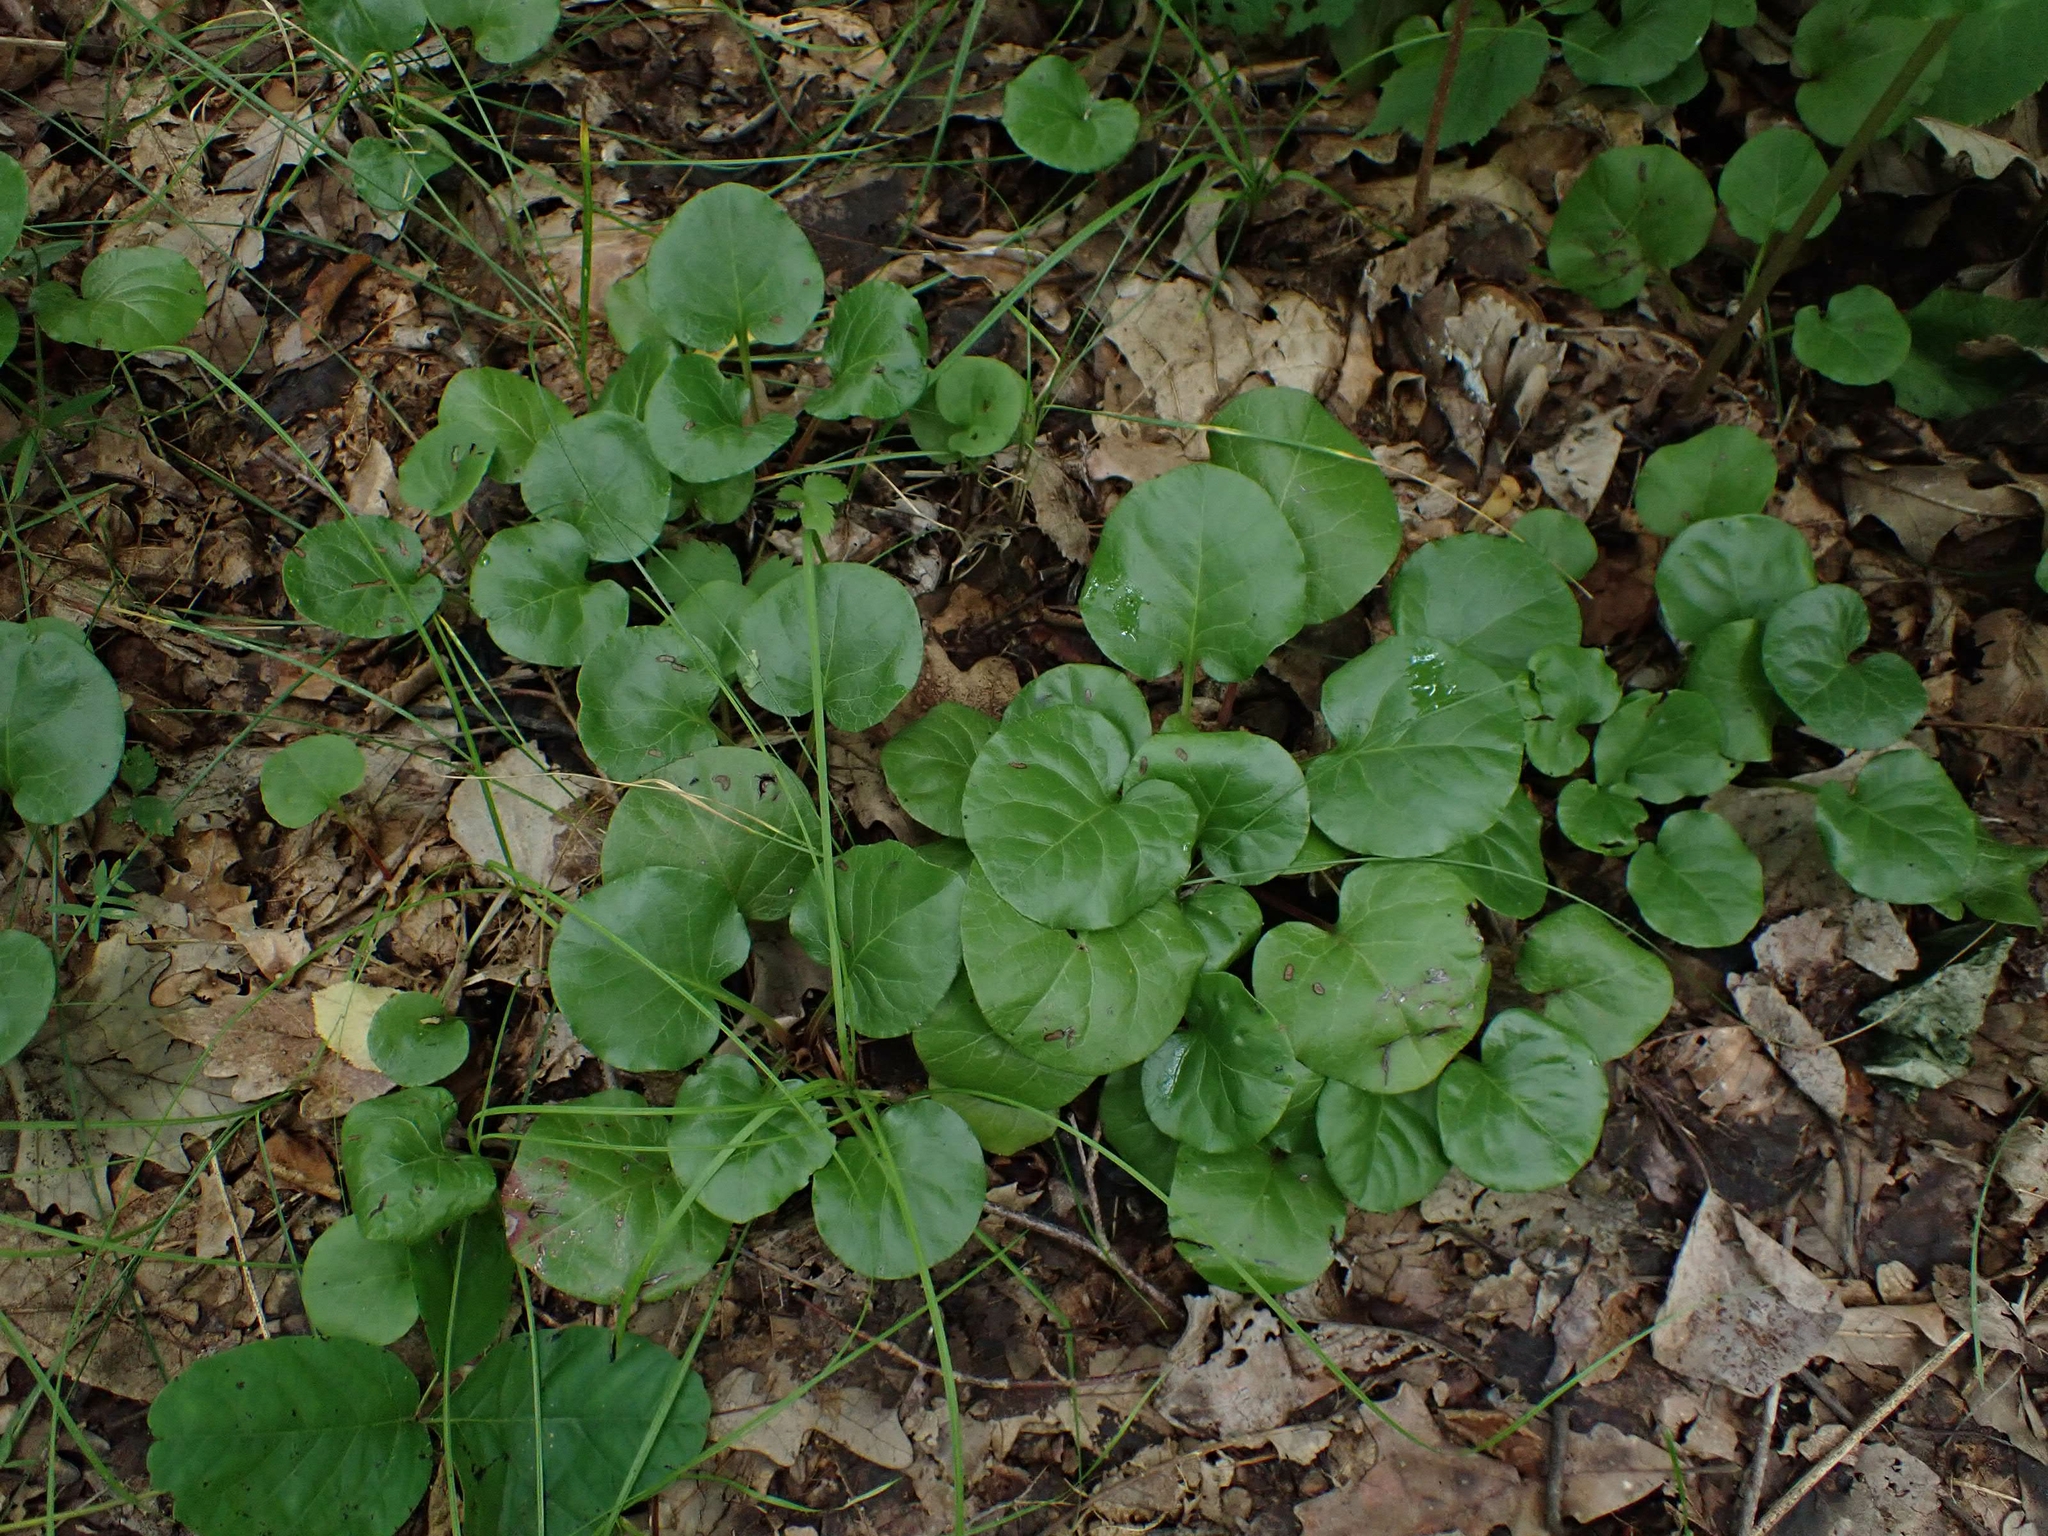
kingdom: Plantae
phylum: Tracheophyta
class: Magnoliopsida
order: Ericales
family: Ericaceae
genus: Pyrola
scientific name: Pyrola asarifolia
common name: Bog wintergreen
